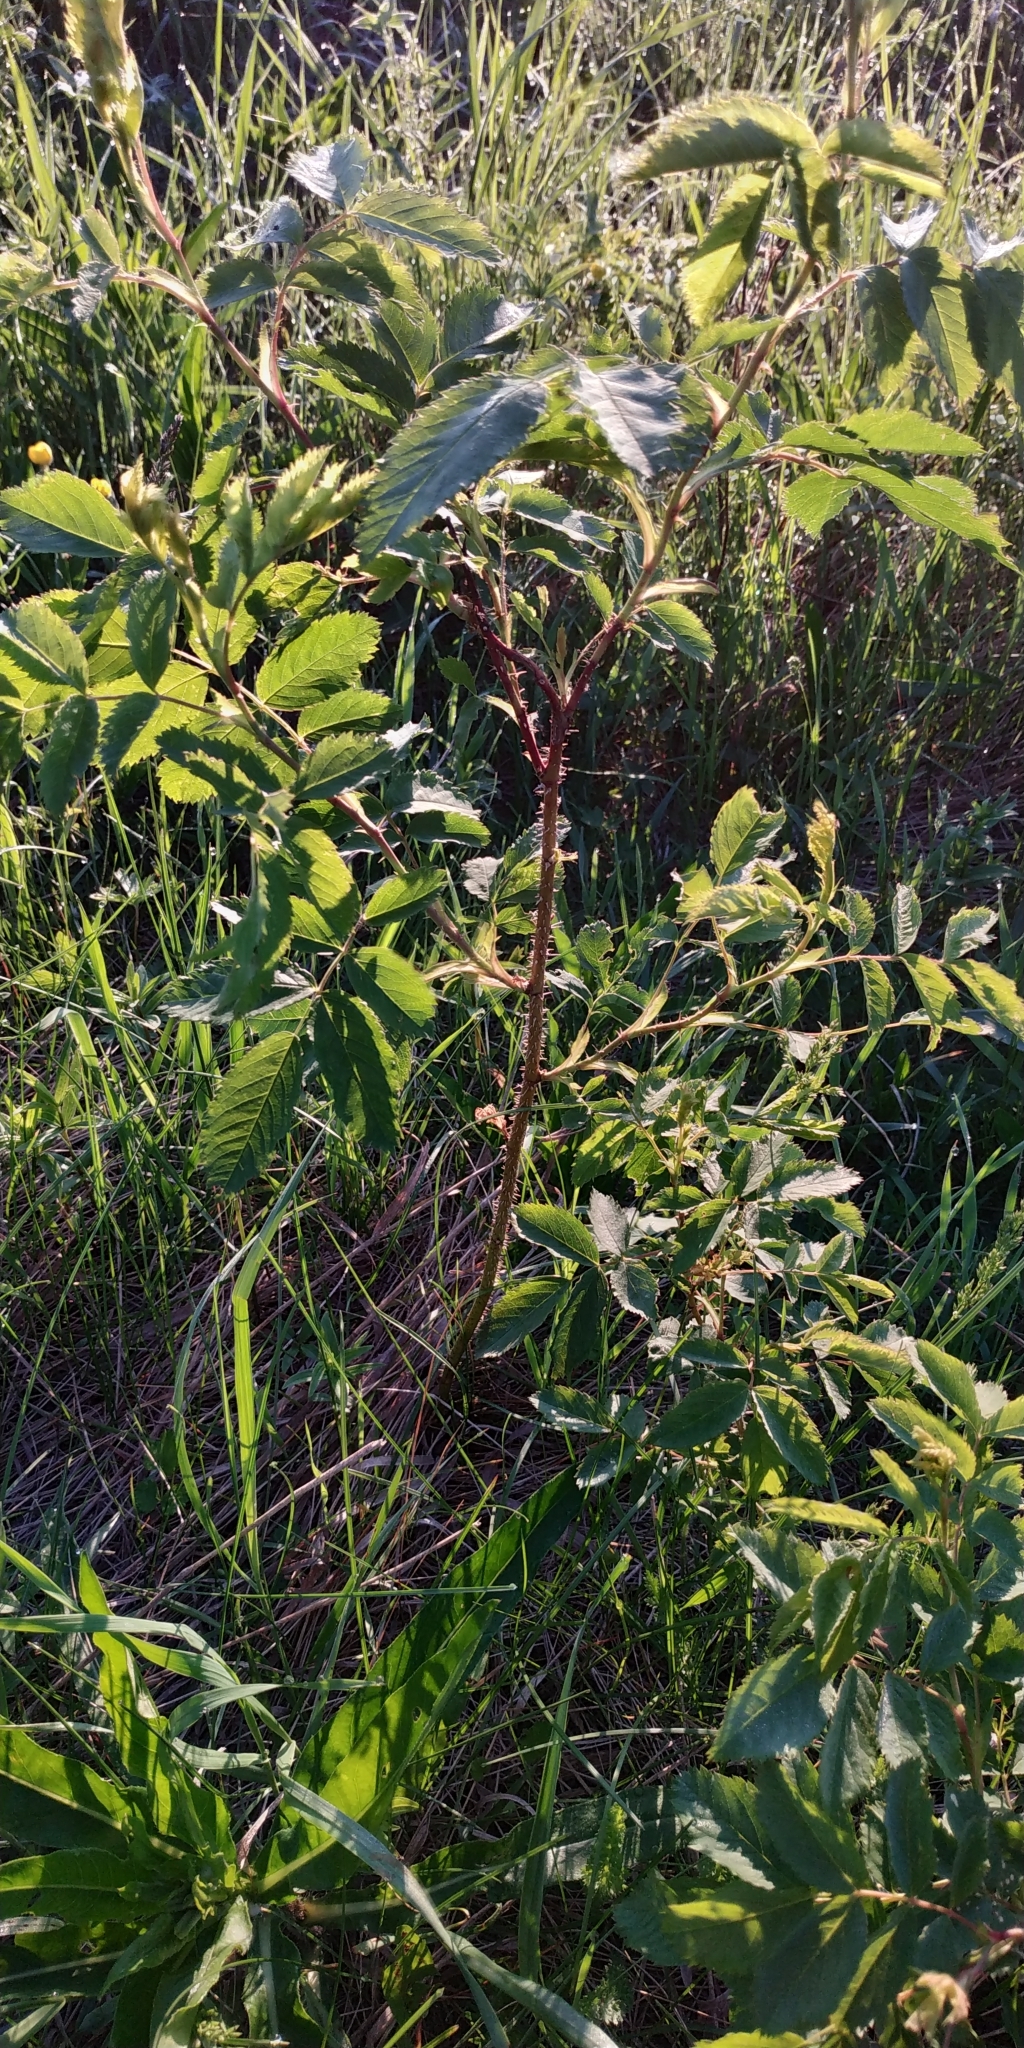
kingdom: Plantae
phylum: Tracheophyta
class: Magnoliopsida
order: Rosales
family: Rosaceae
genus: Rosa
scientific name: Rosa majalis
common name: Cinnamon rose
